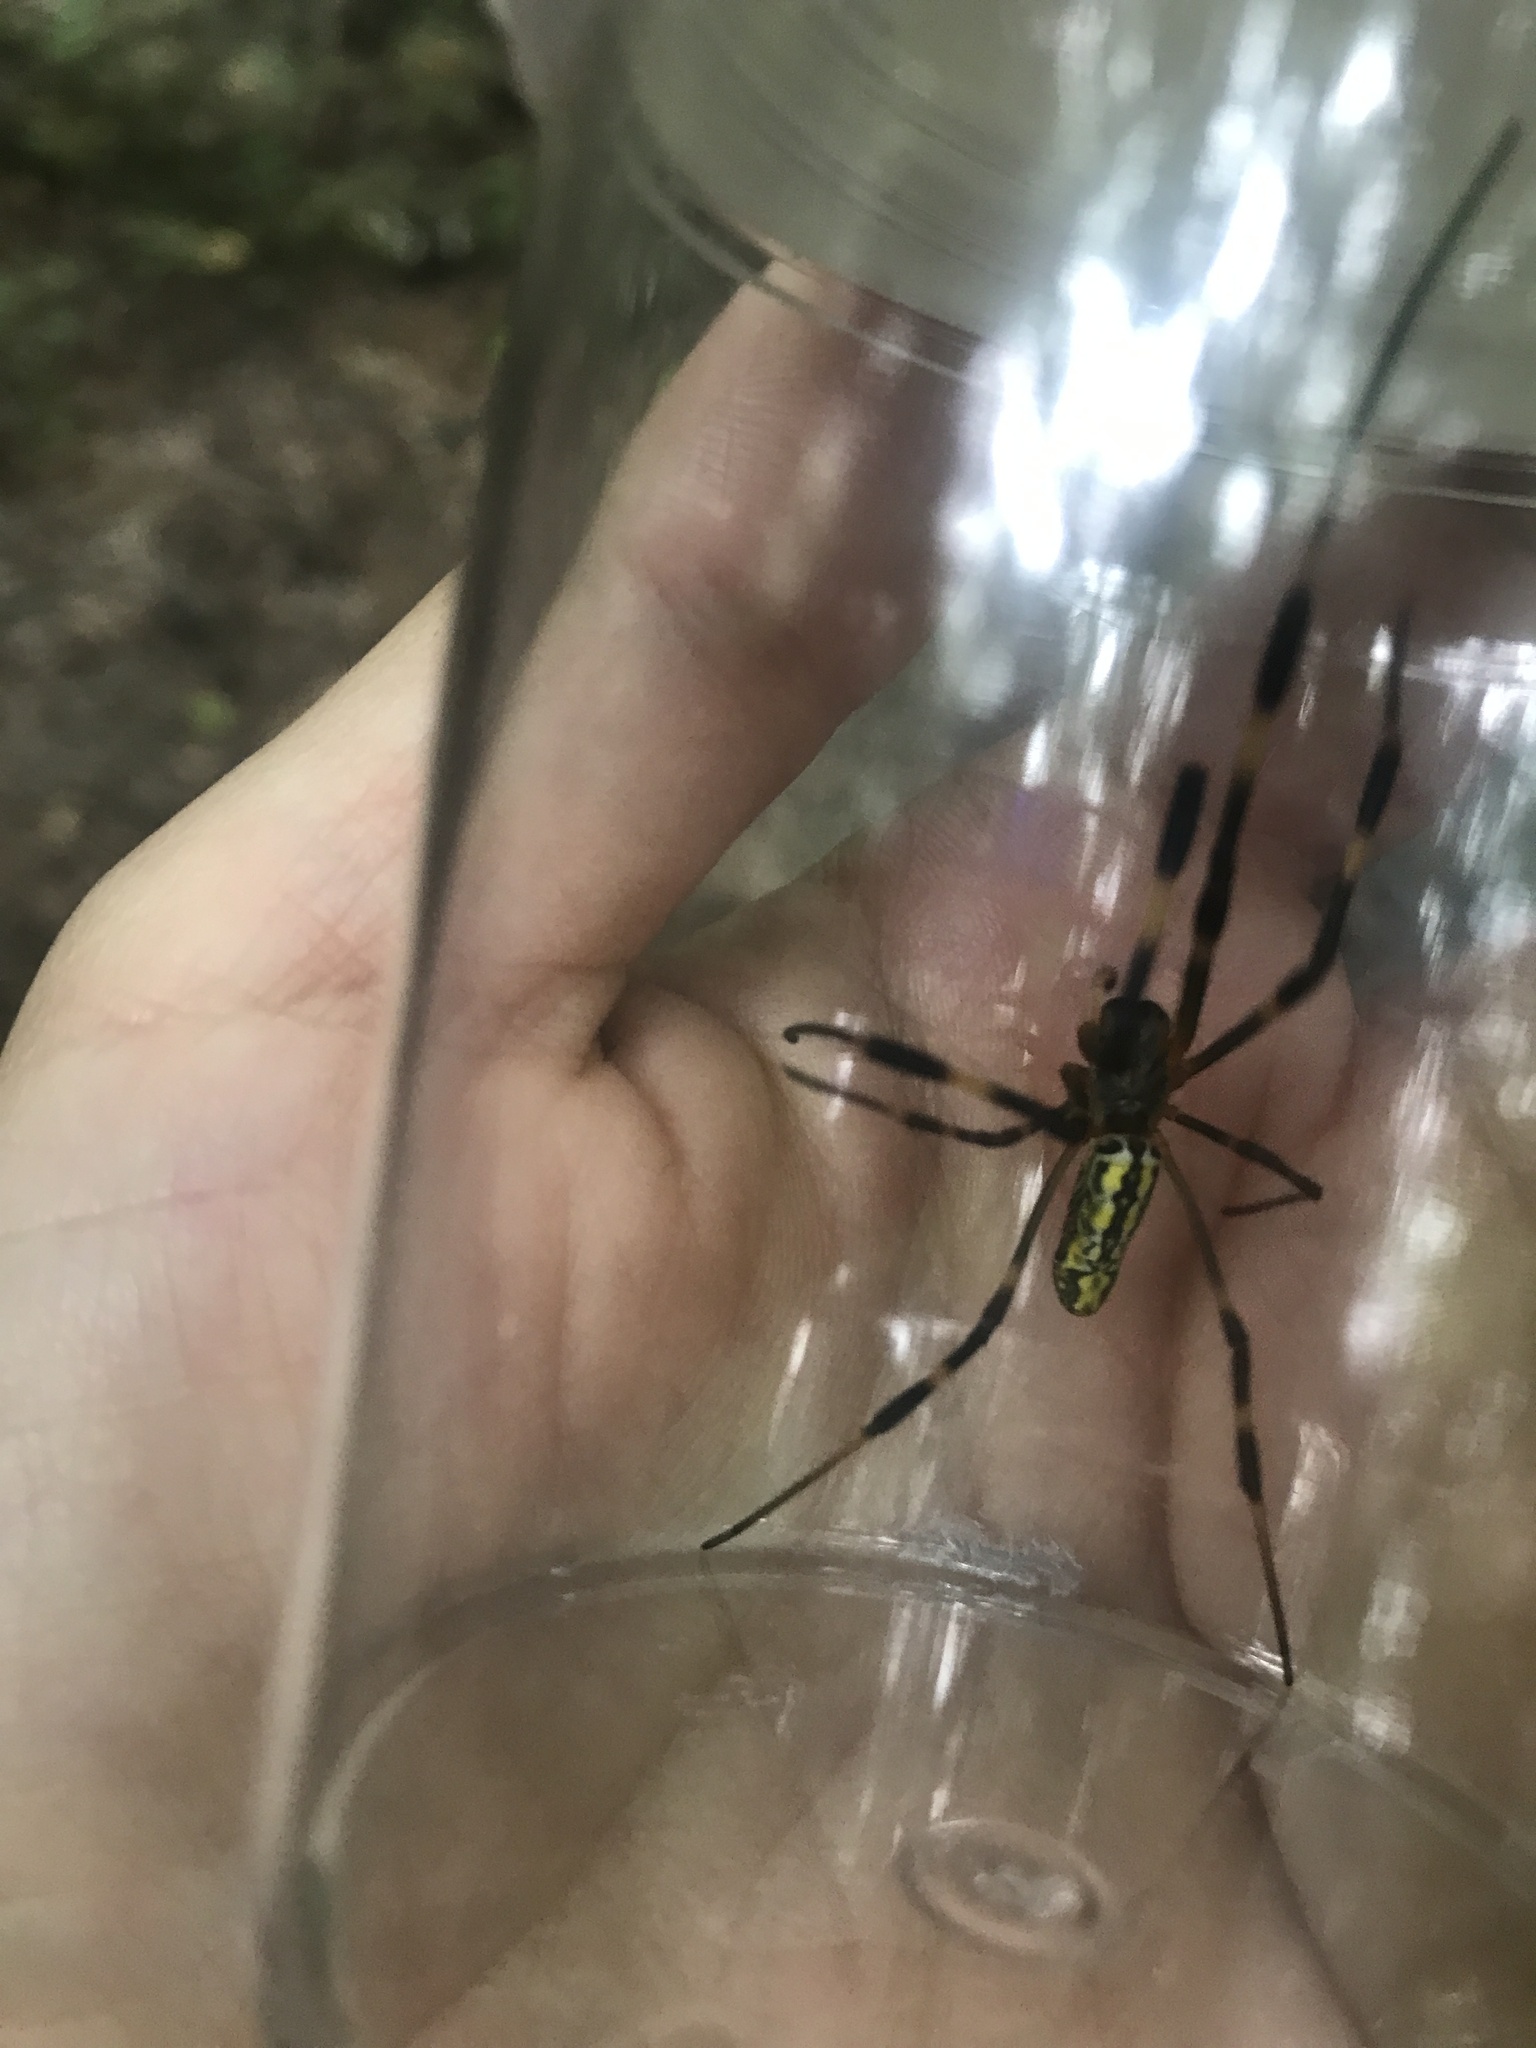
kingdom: Animalia
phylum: Arthropoda
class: Arachnida
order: Araneae
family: Araneidae
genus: Trichonephila
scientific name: Trichonephila clavata
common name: Jorō spider
